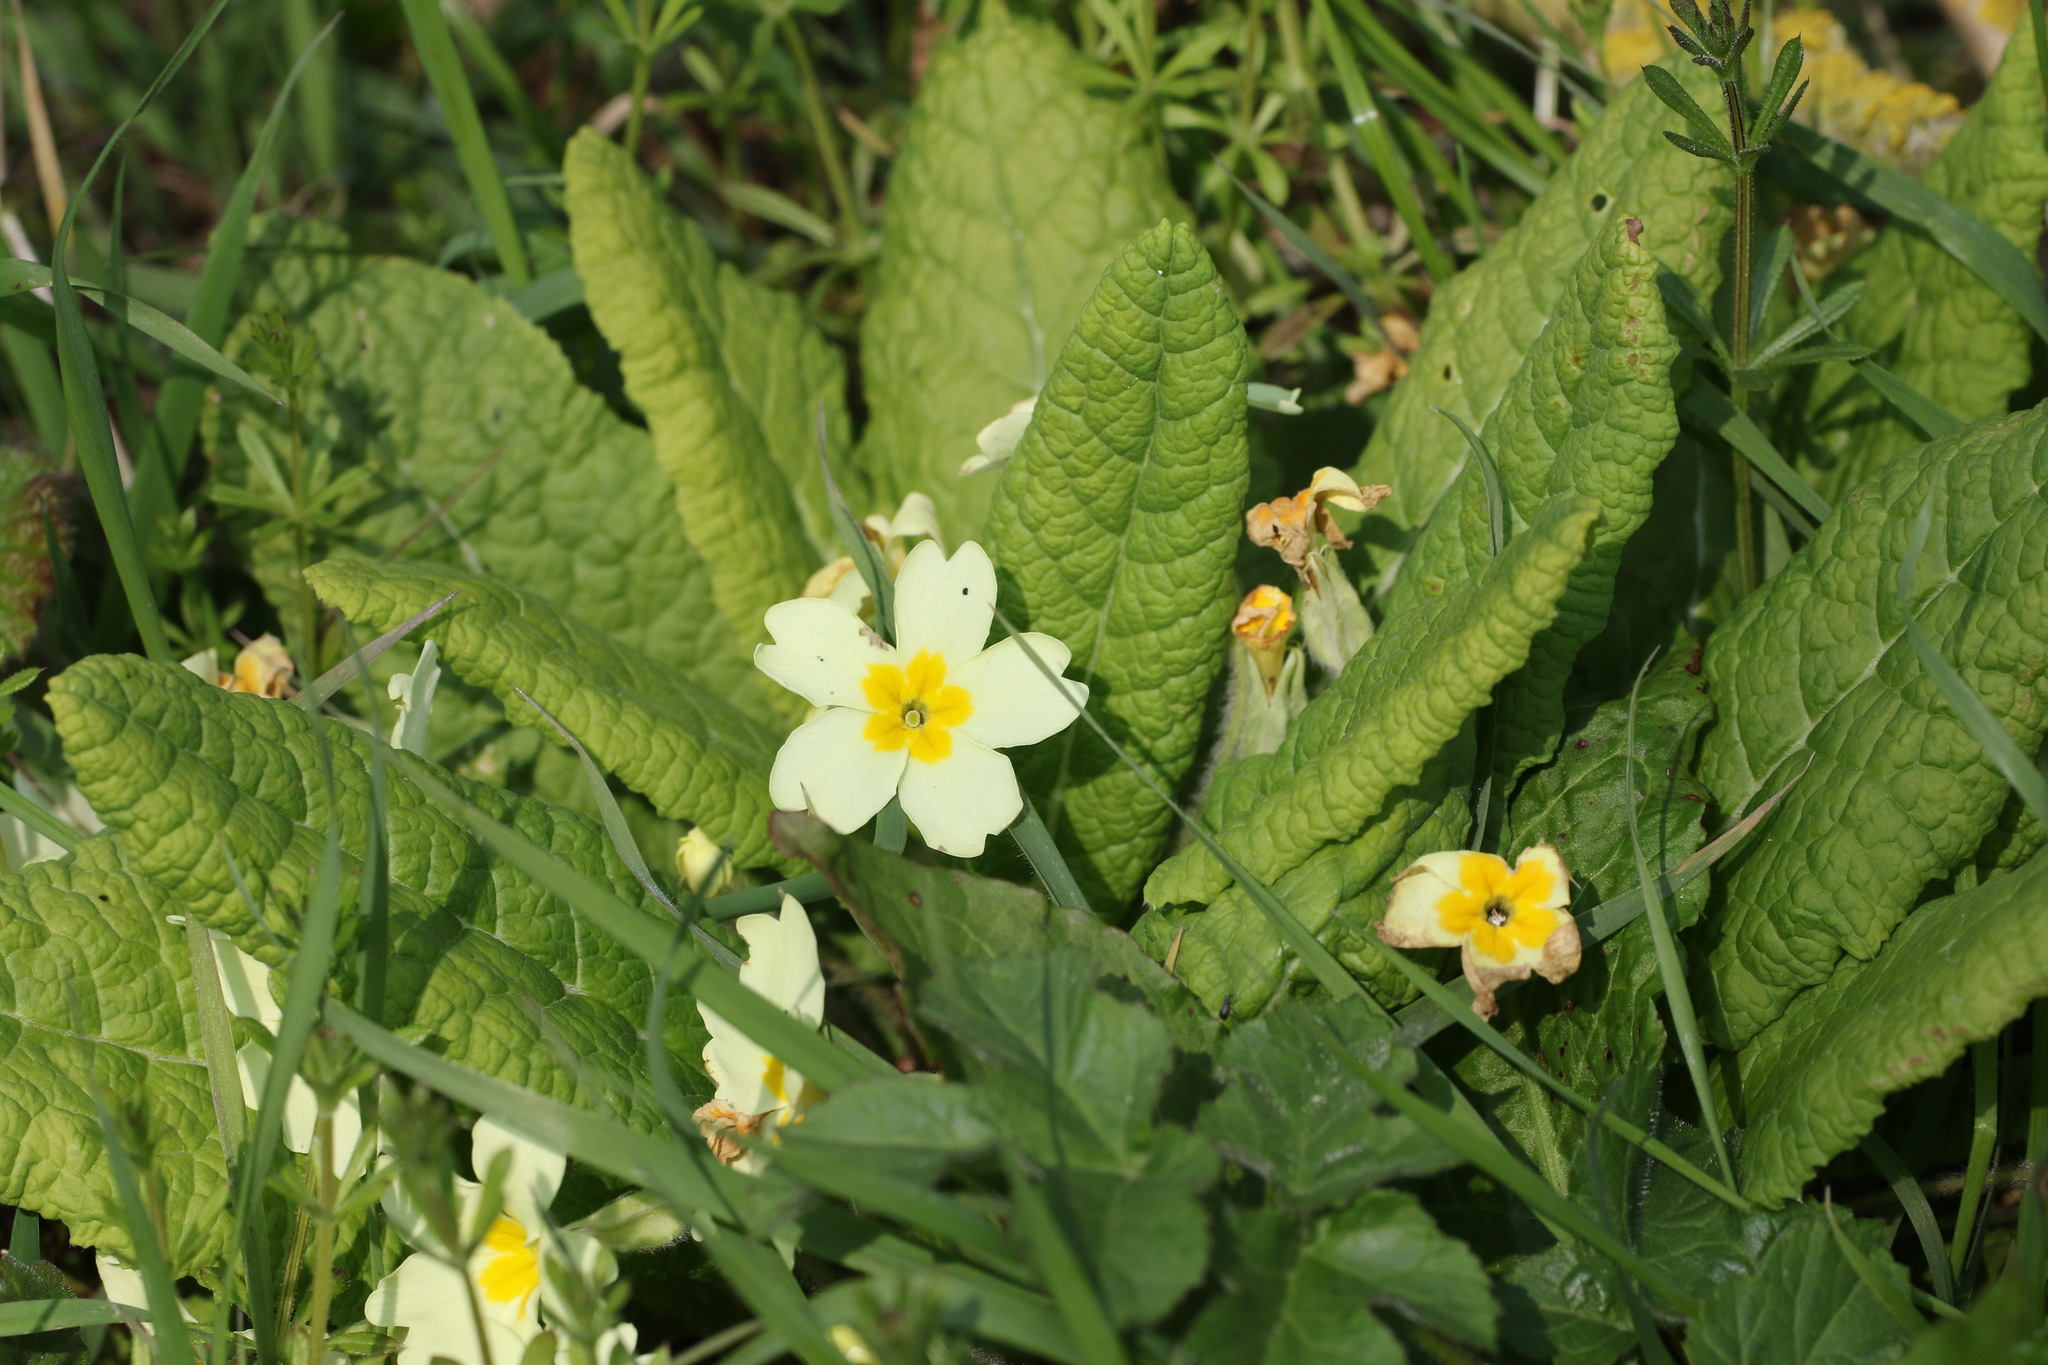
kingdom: Plantae
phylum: Tracheophyta
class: Magnoliopsida
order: Ericales
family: Primulaceae
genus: Primula
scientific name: Primula vulgaris
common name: Primrose
